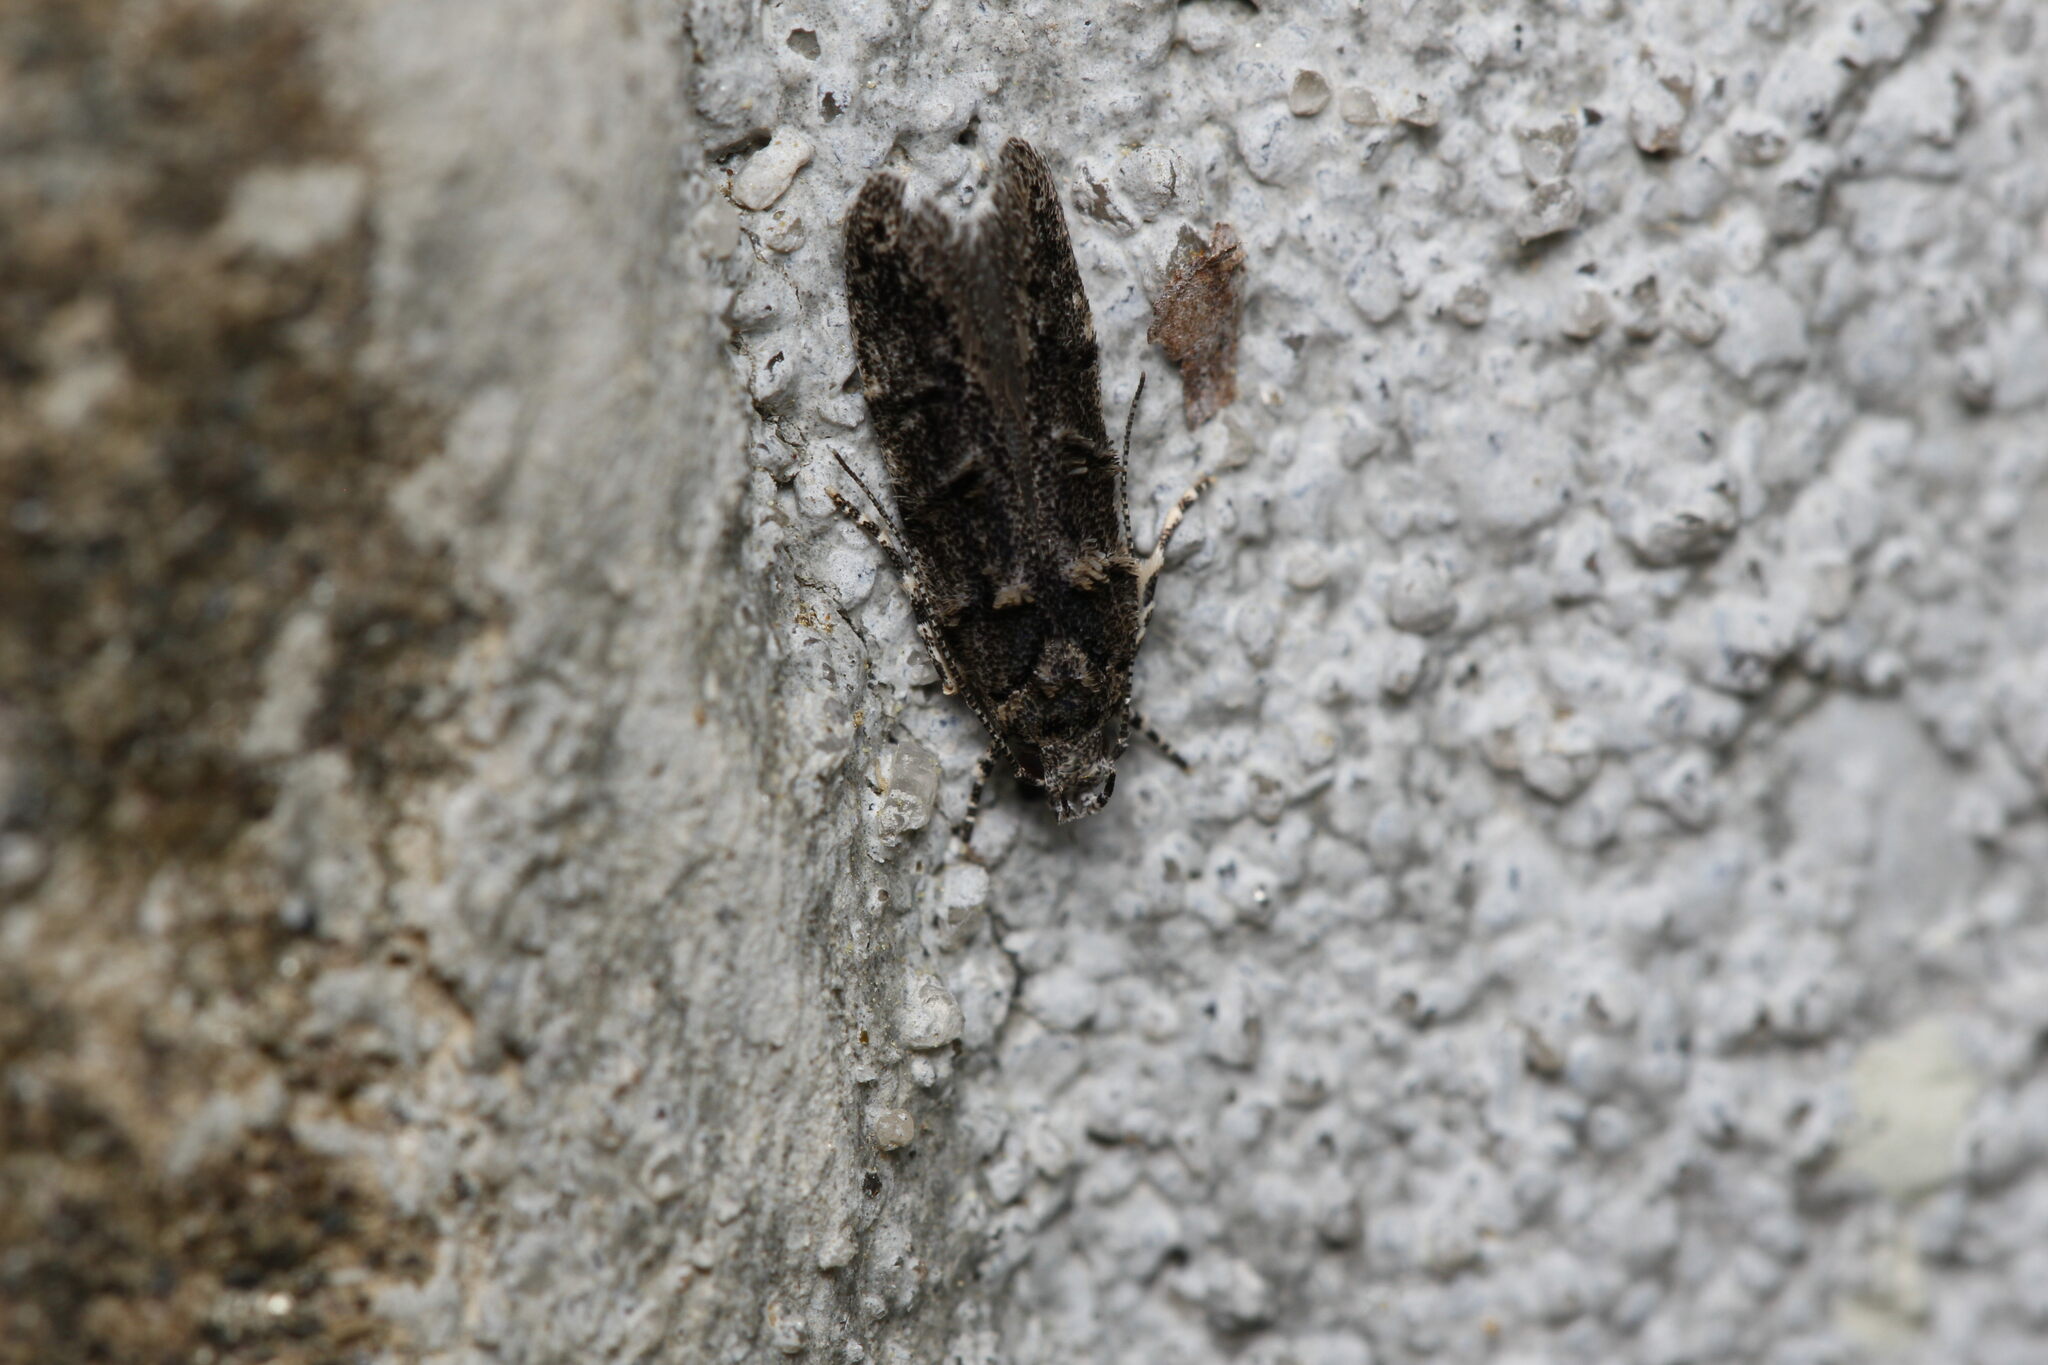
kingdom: Animalia
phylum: Arthropoda
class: Insecta
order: Lepidoptera
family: Gelechiidae
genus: Pubitelphusa
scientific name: Pubitelphusa latifasciella
